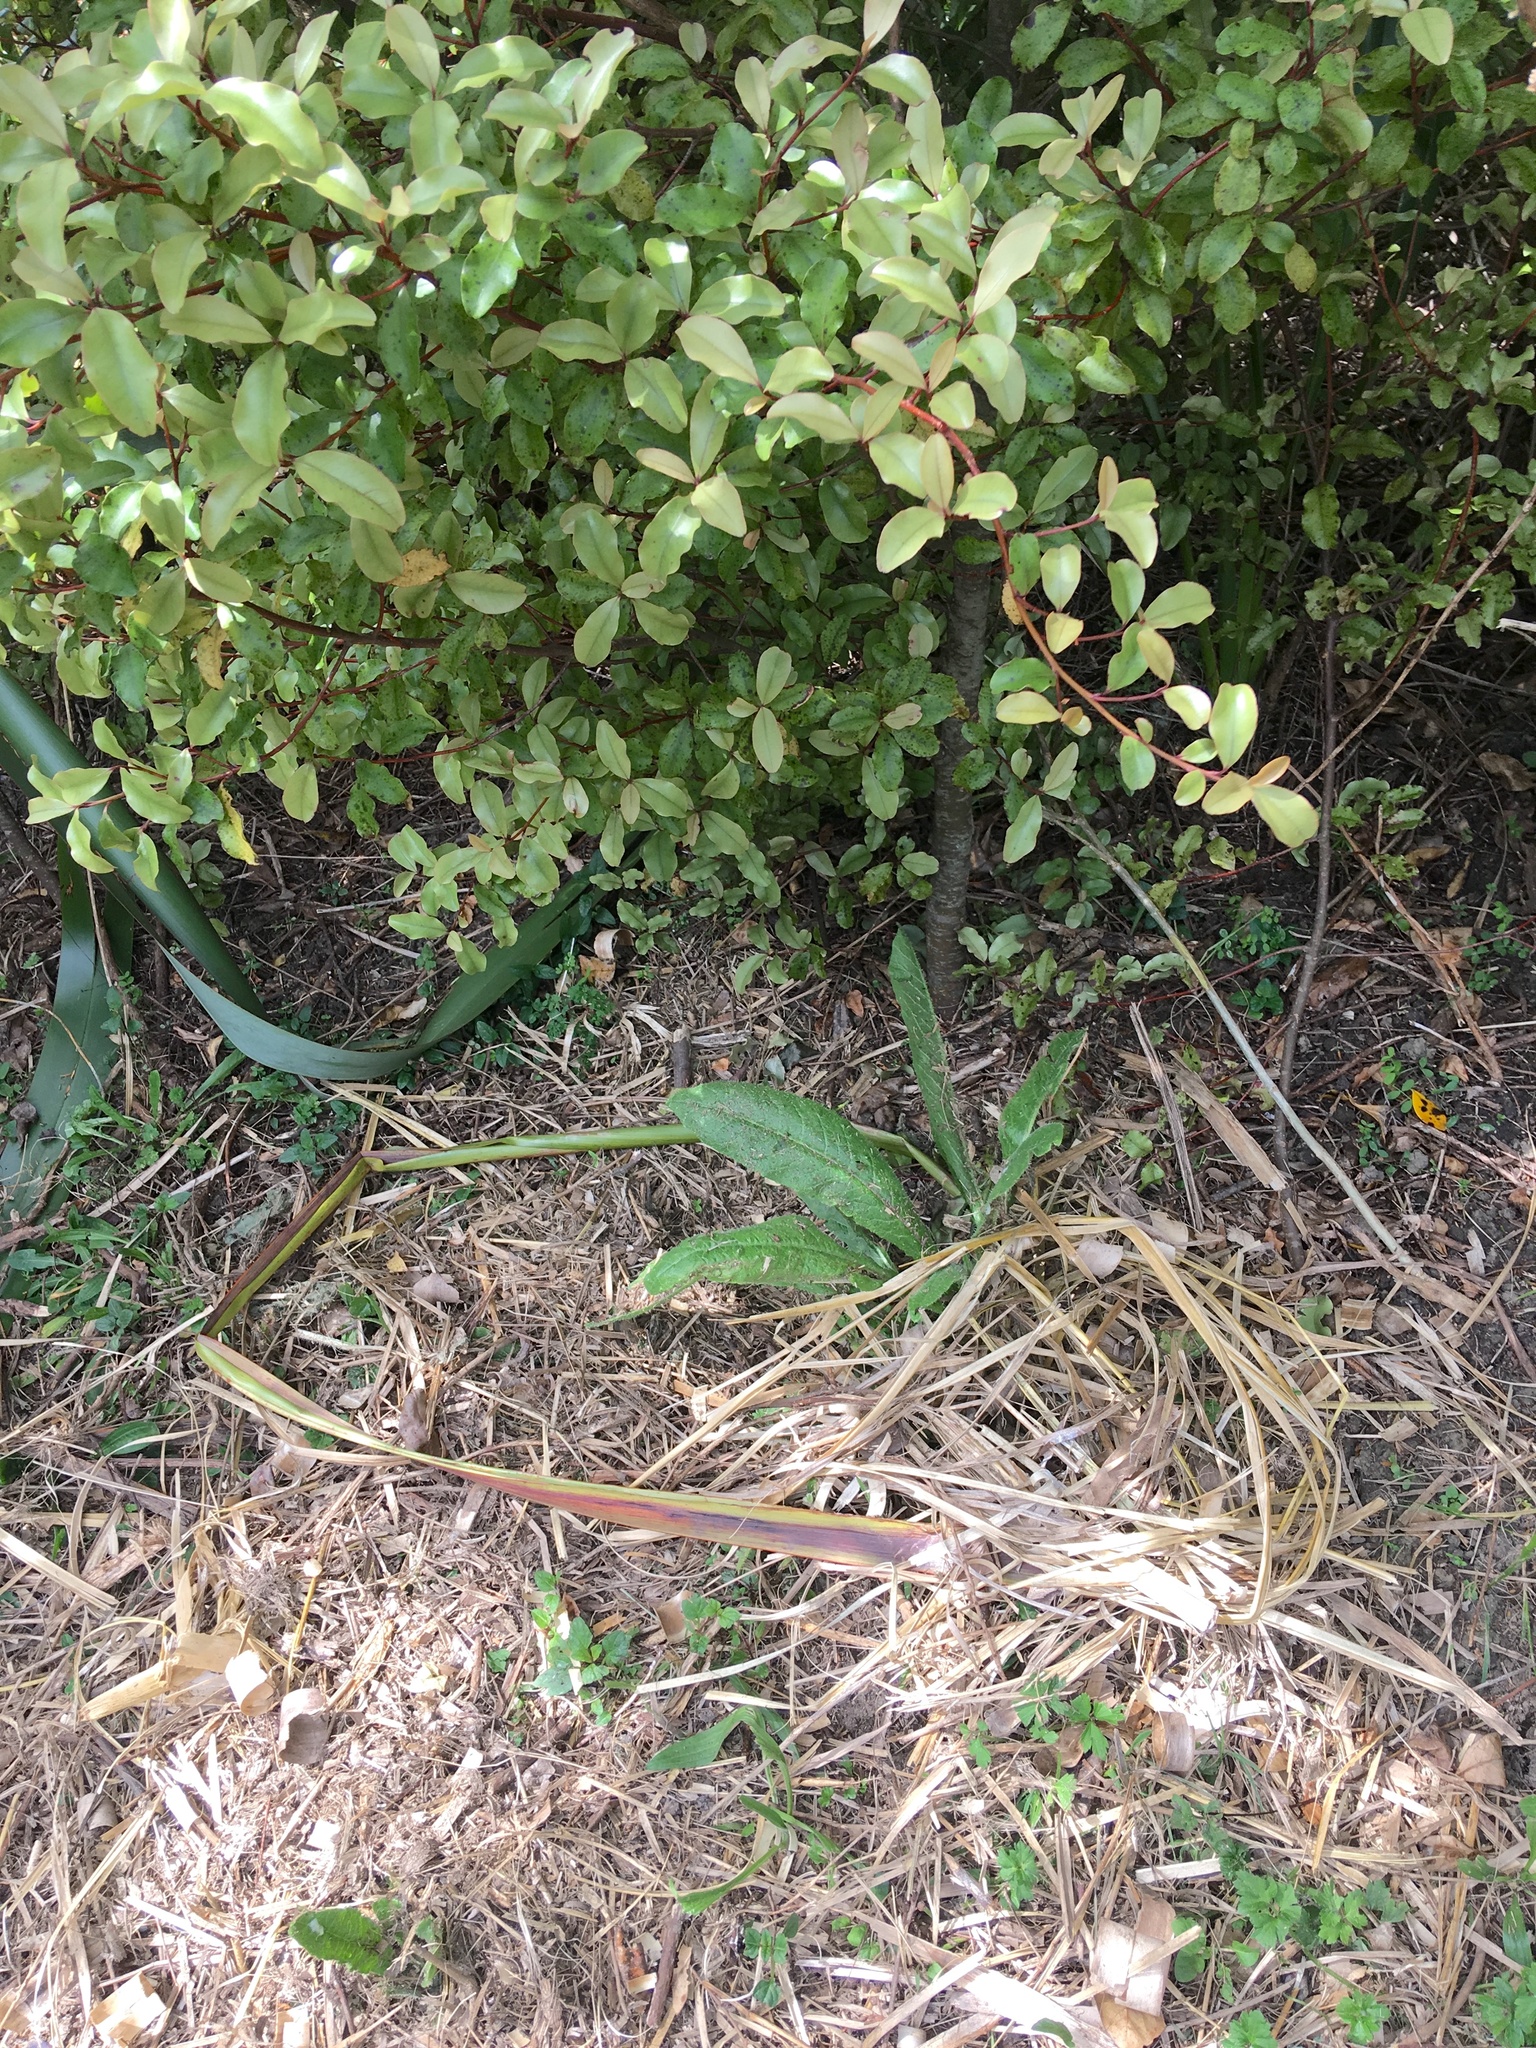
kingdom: Plantae
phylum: Tracheophyta
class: Magnoliopsida
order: Ericales
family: Primulaceae
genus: Myrsine
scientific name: Myrsine australis
